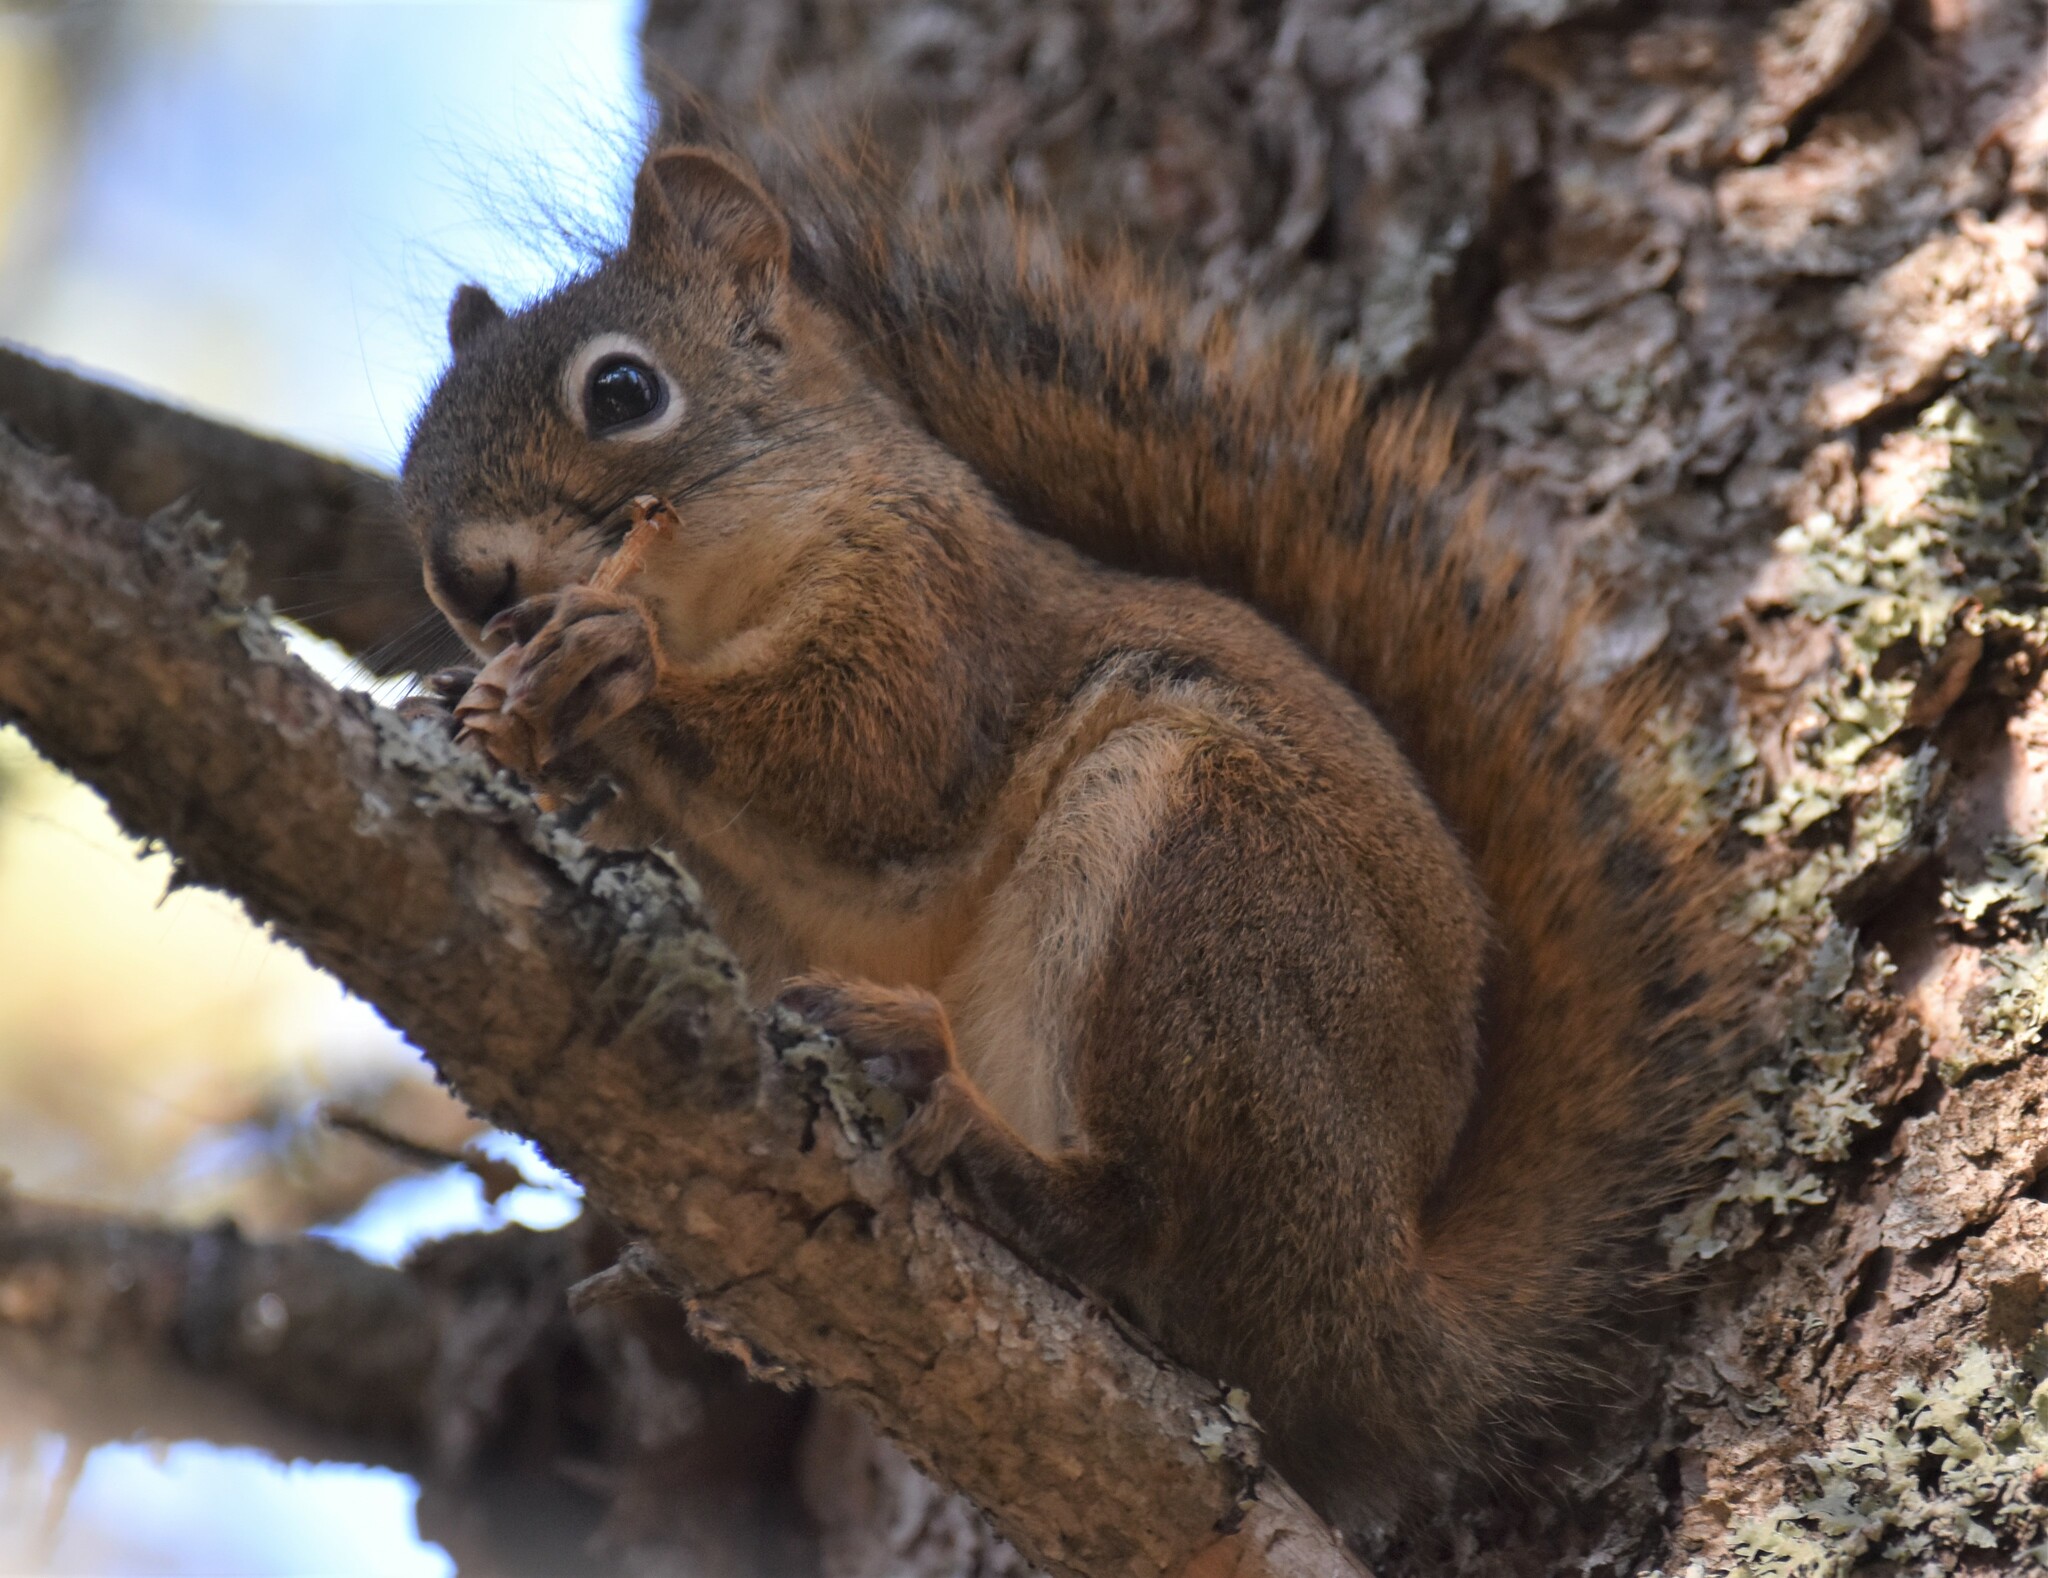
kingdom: Animalia
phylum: Chordata
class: Mammalia
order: Rodentia
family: Sciuridae
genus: Tamiasciurus
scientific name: Tamiasciurus hudsonicus
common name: Red squirrel
